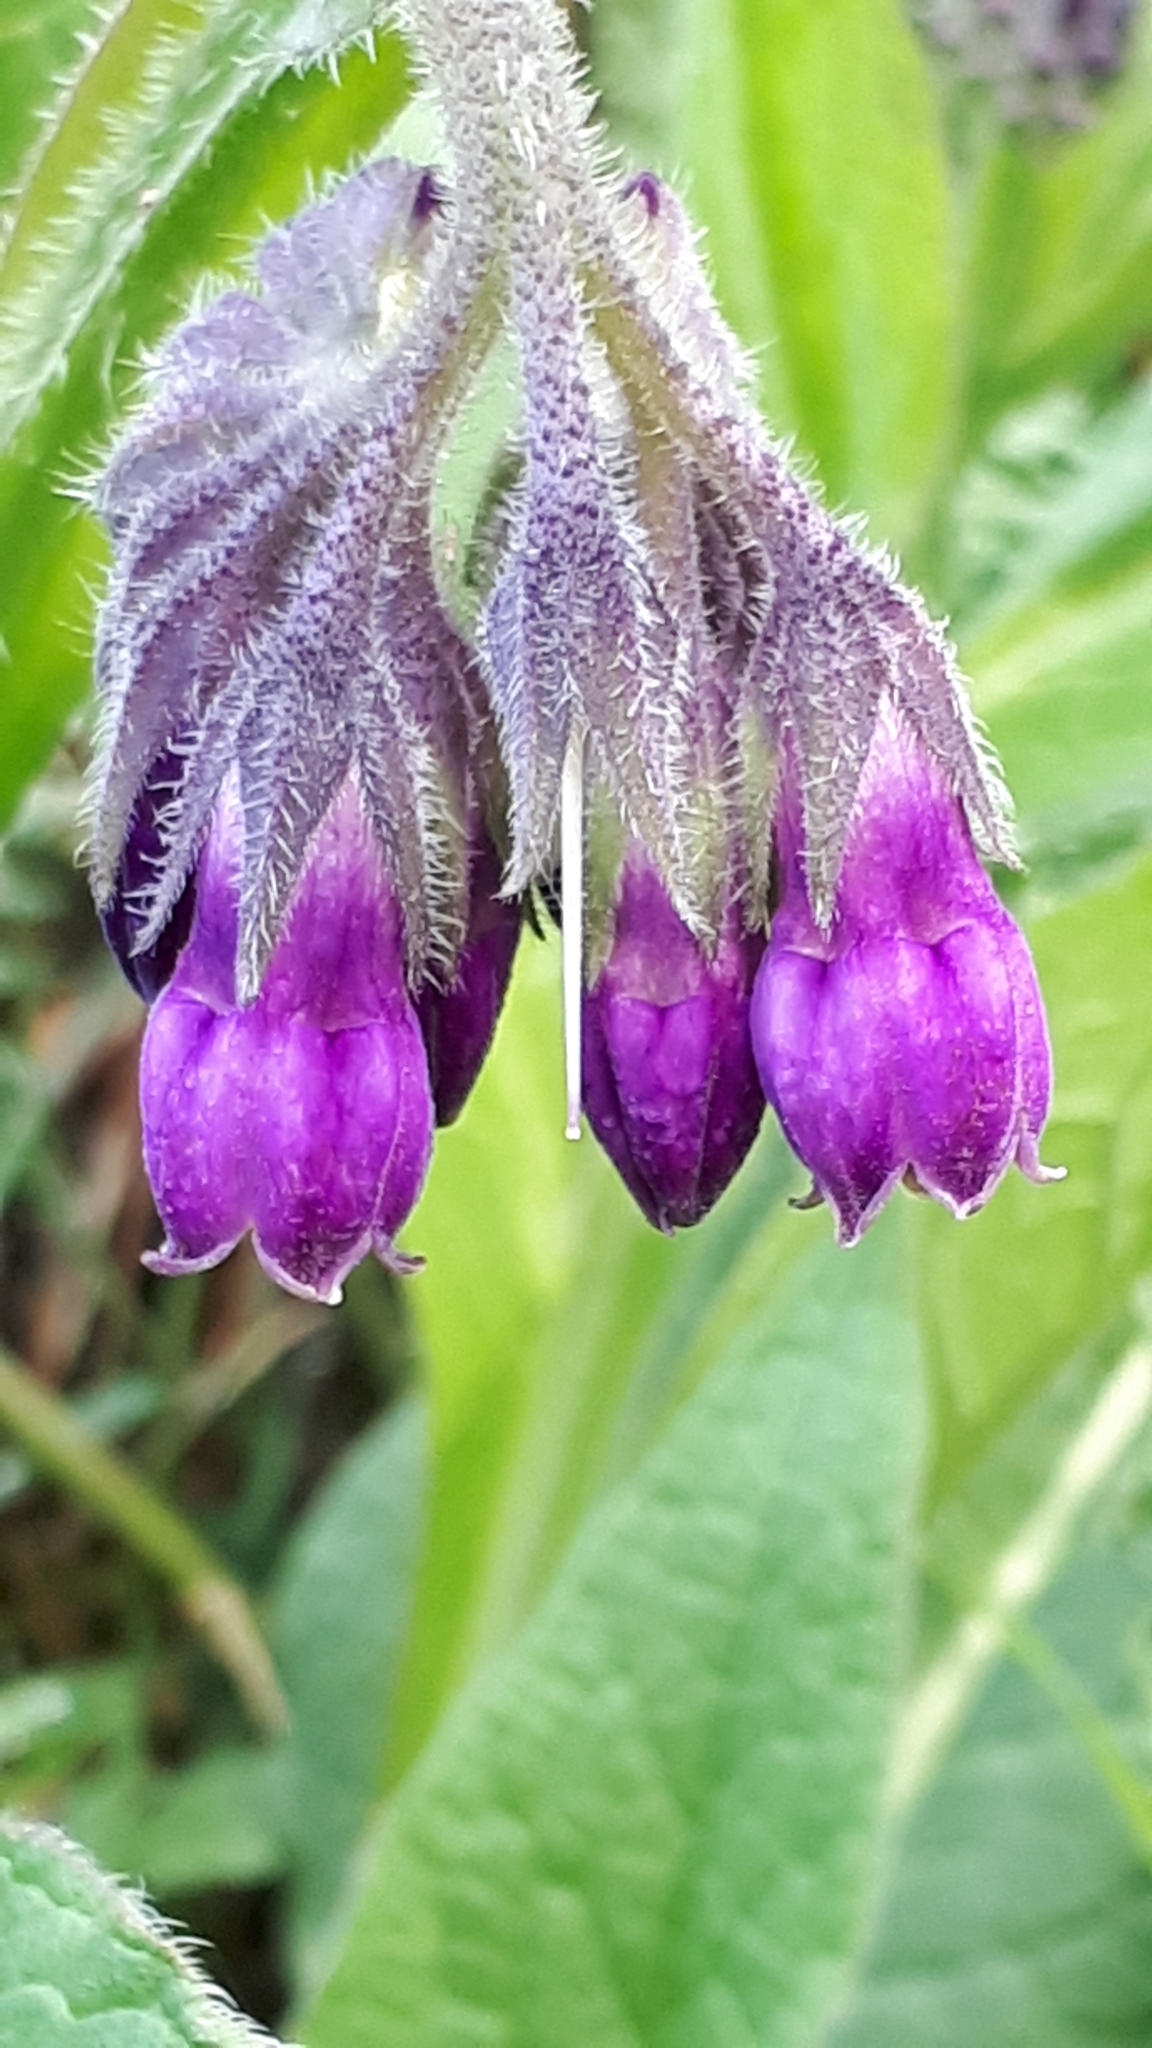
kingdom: Plantae
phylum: Tracheophyta
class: Magnoliopsida
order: Boraginales
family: Boraginaceae
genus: Symphytum
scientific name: Symphytum officinale
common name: Common comfrey
